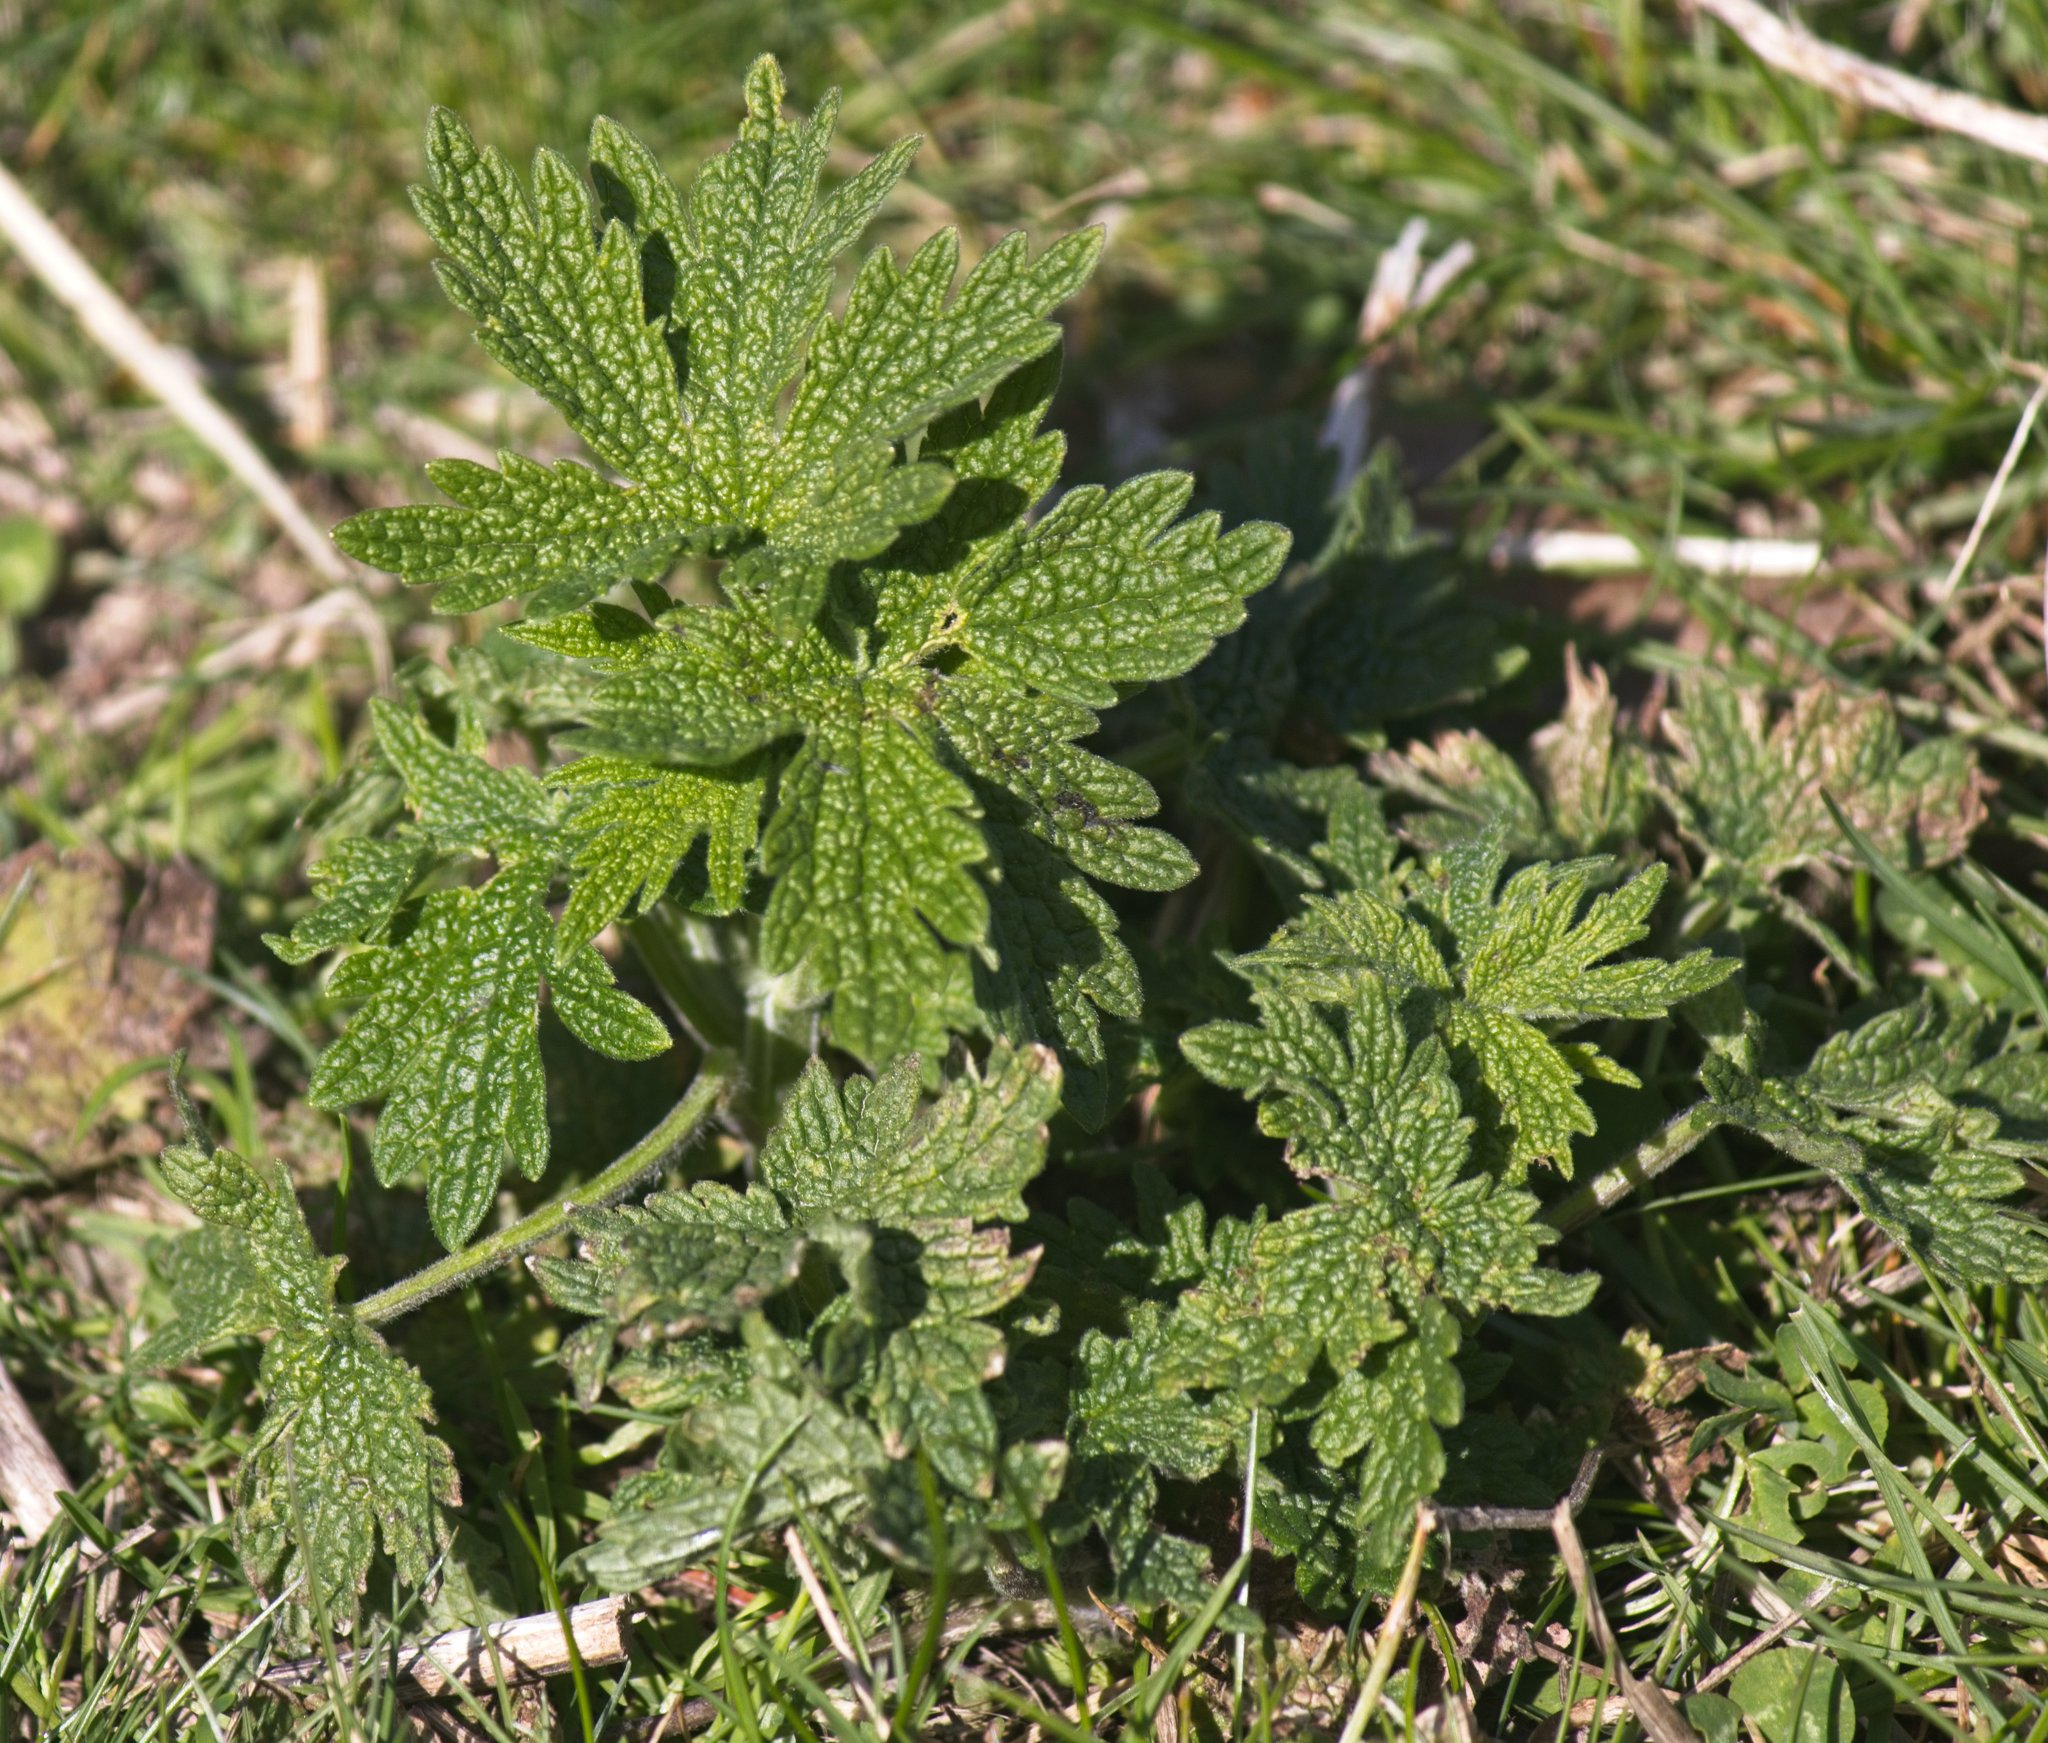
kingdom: Plantae
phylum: Tracheophyta
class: Magnoliopsida
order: Lamiales
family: Lamiaceae
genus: Leonurus
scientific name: Leonurus cardiaca
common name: Motherwort
